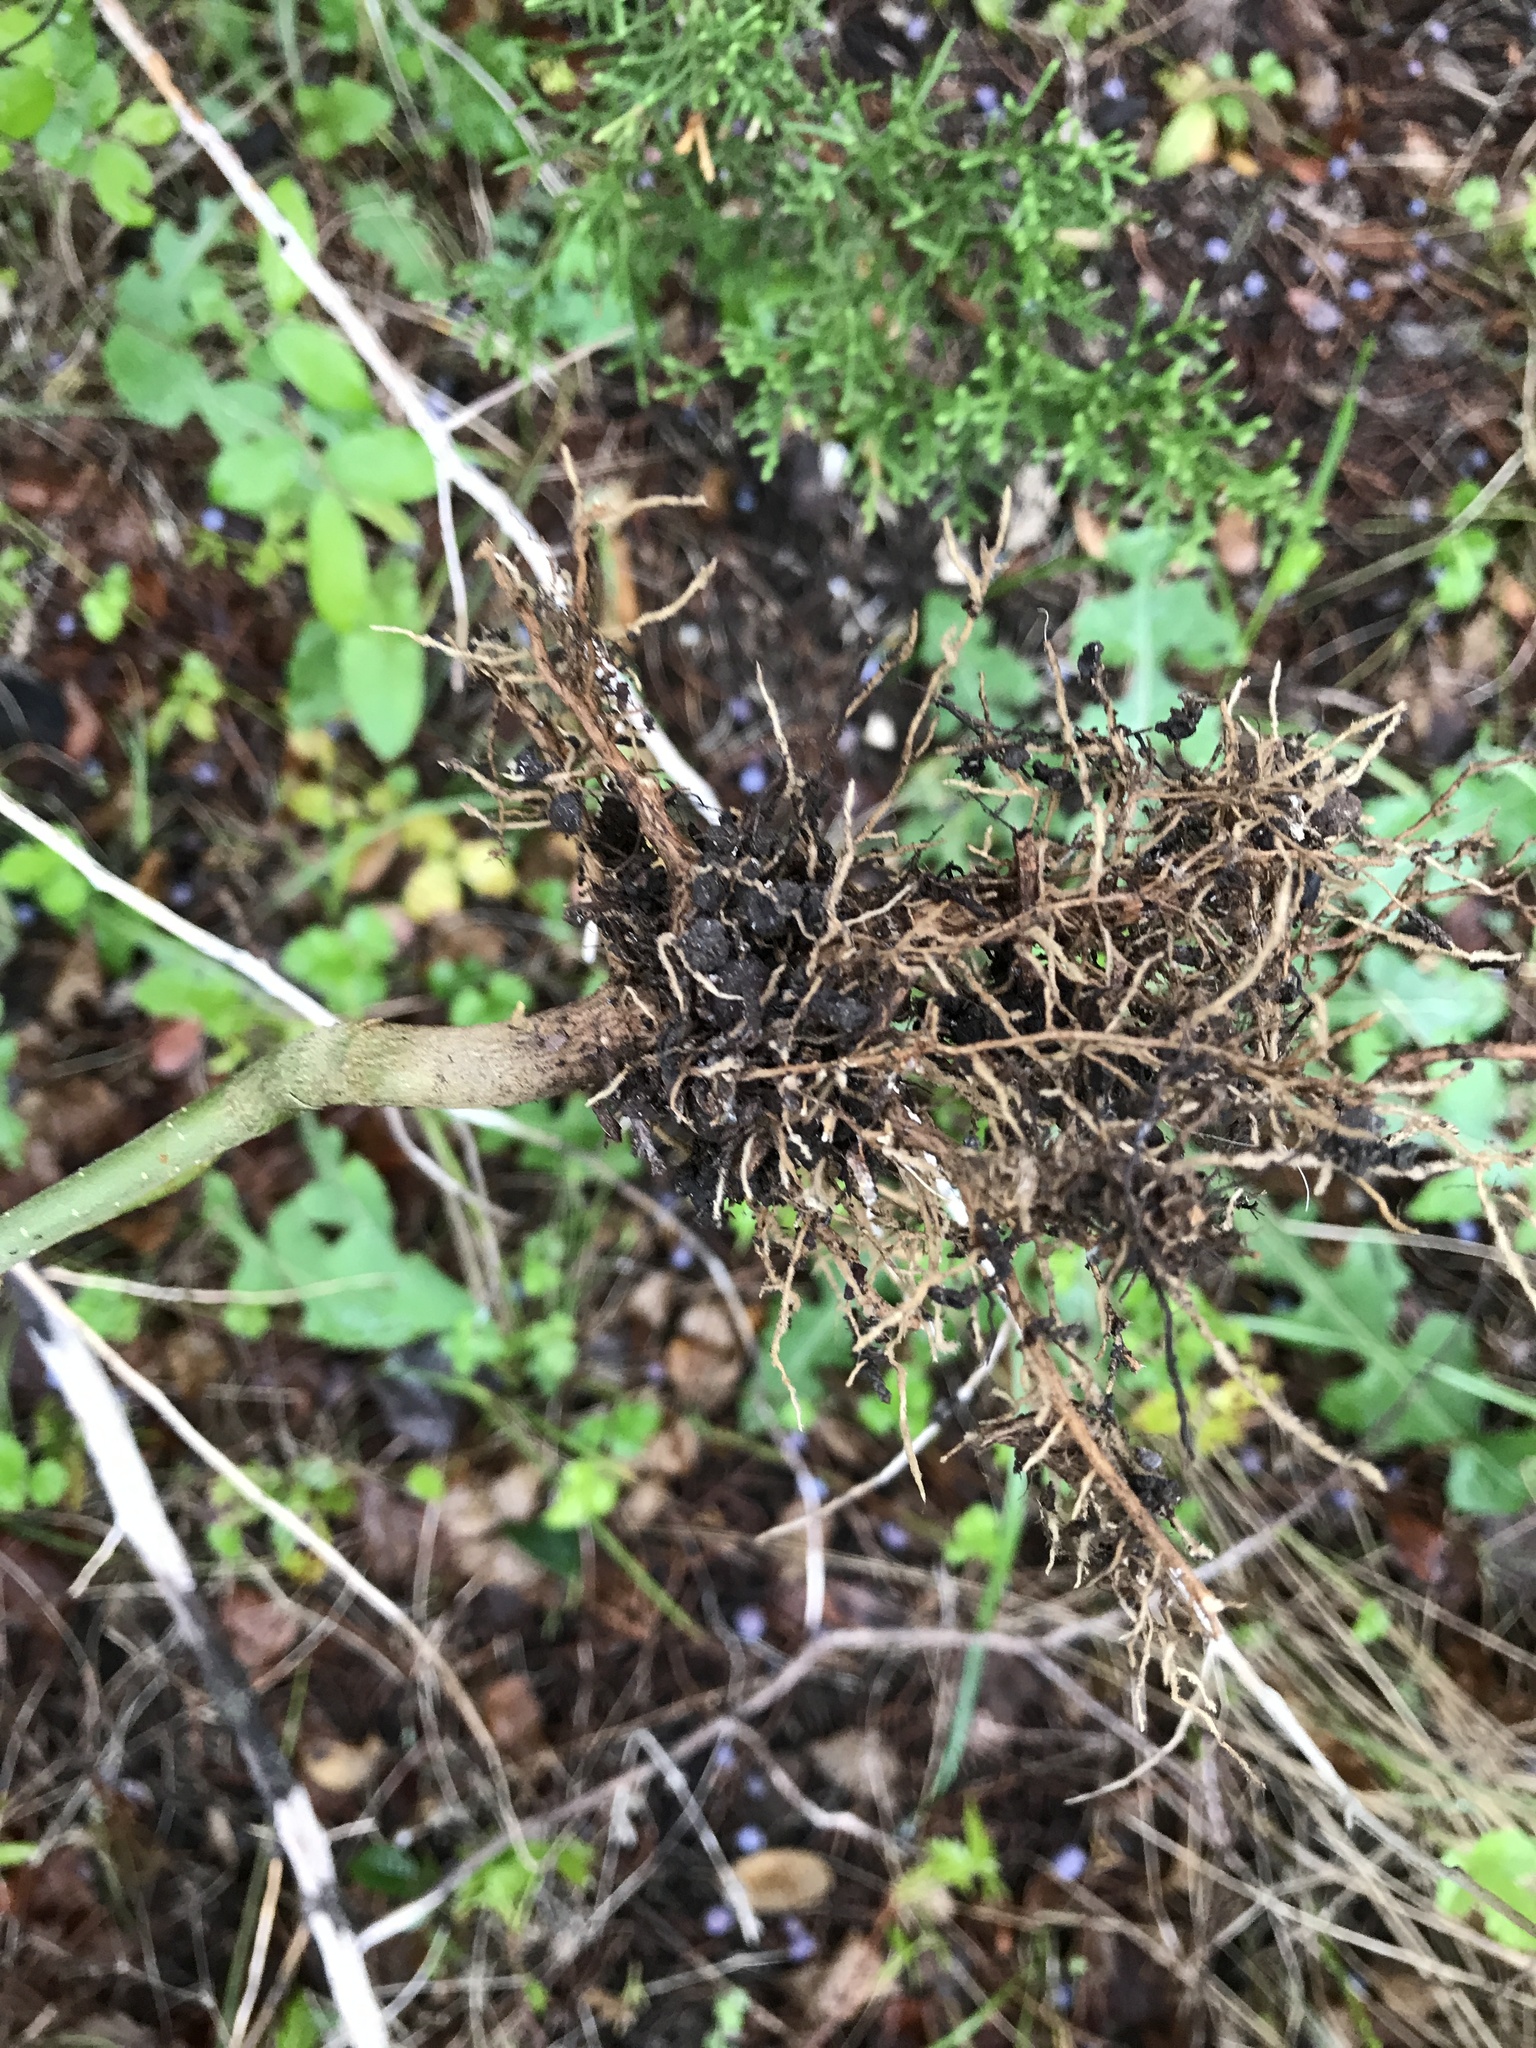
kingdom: Plantae
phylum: Tracheophyta
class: Magnoliopsida
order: Lamiales
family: Oleaceae
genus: Ligustrum
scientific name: Ligustrum lucidum
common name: Glossy privet
